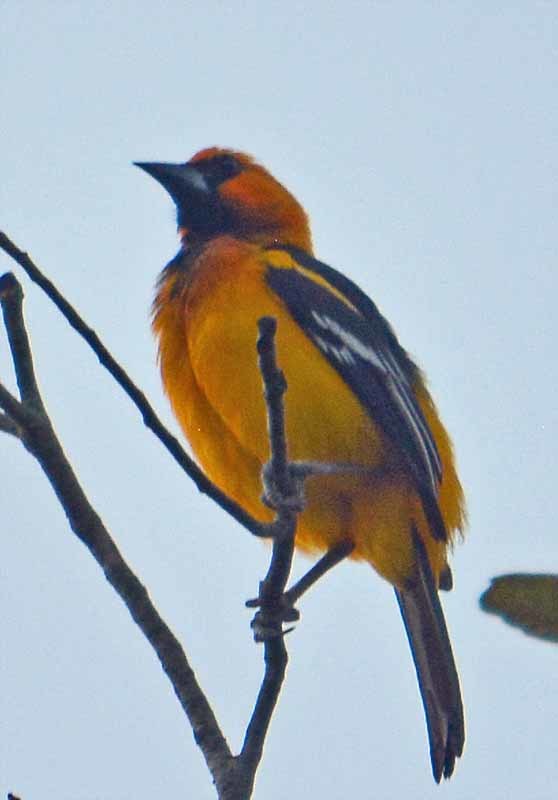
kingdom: Animalia
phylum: Chordata
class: Aves
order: Passeriformes
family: Icteridae
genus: Icterus
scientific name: Icterus gularis
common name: Altamira oriole
